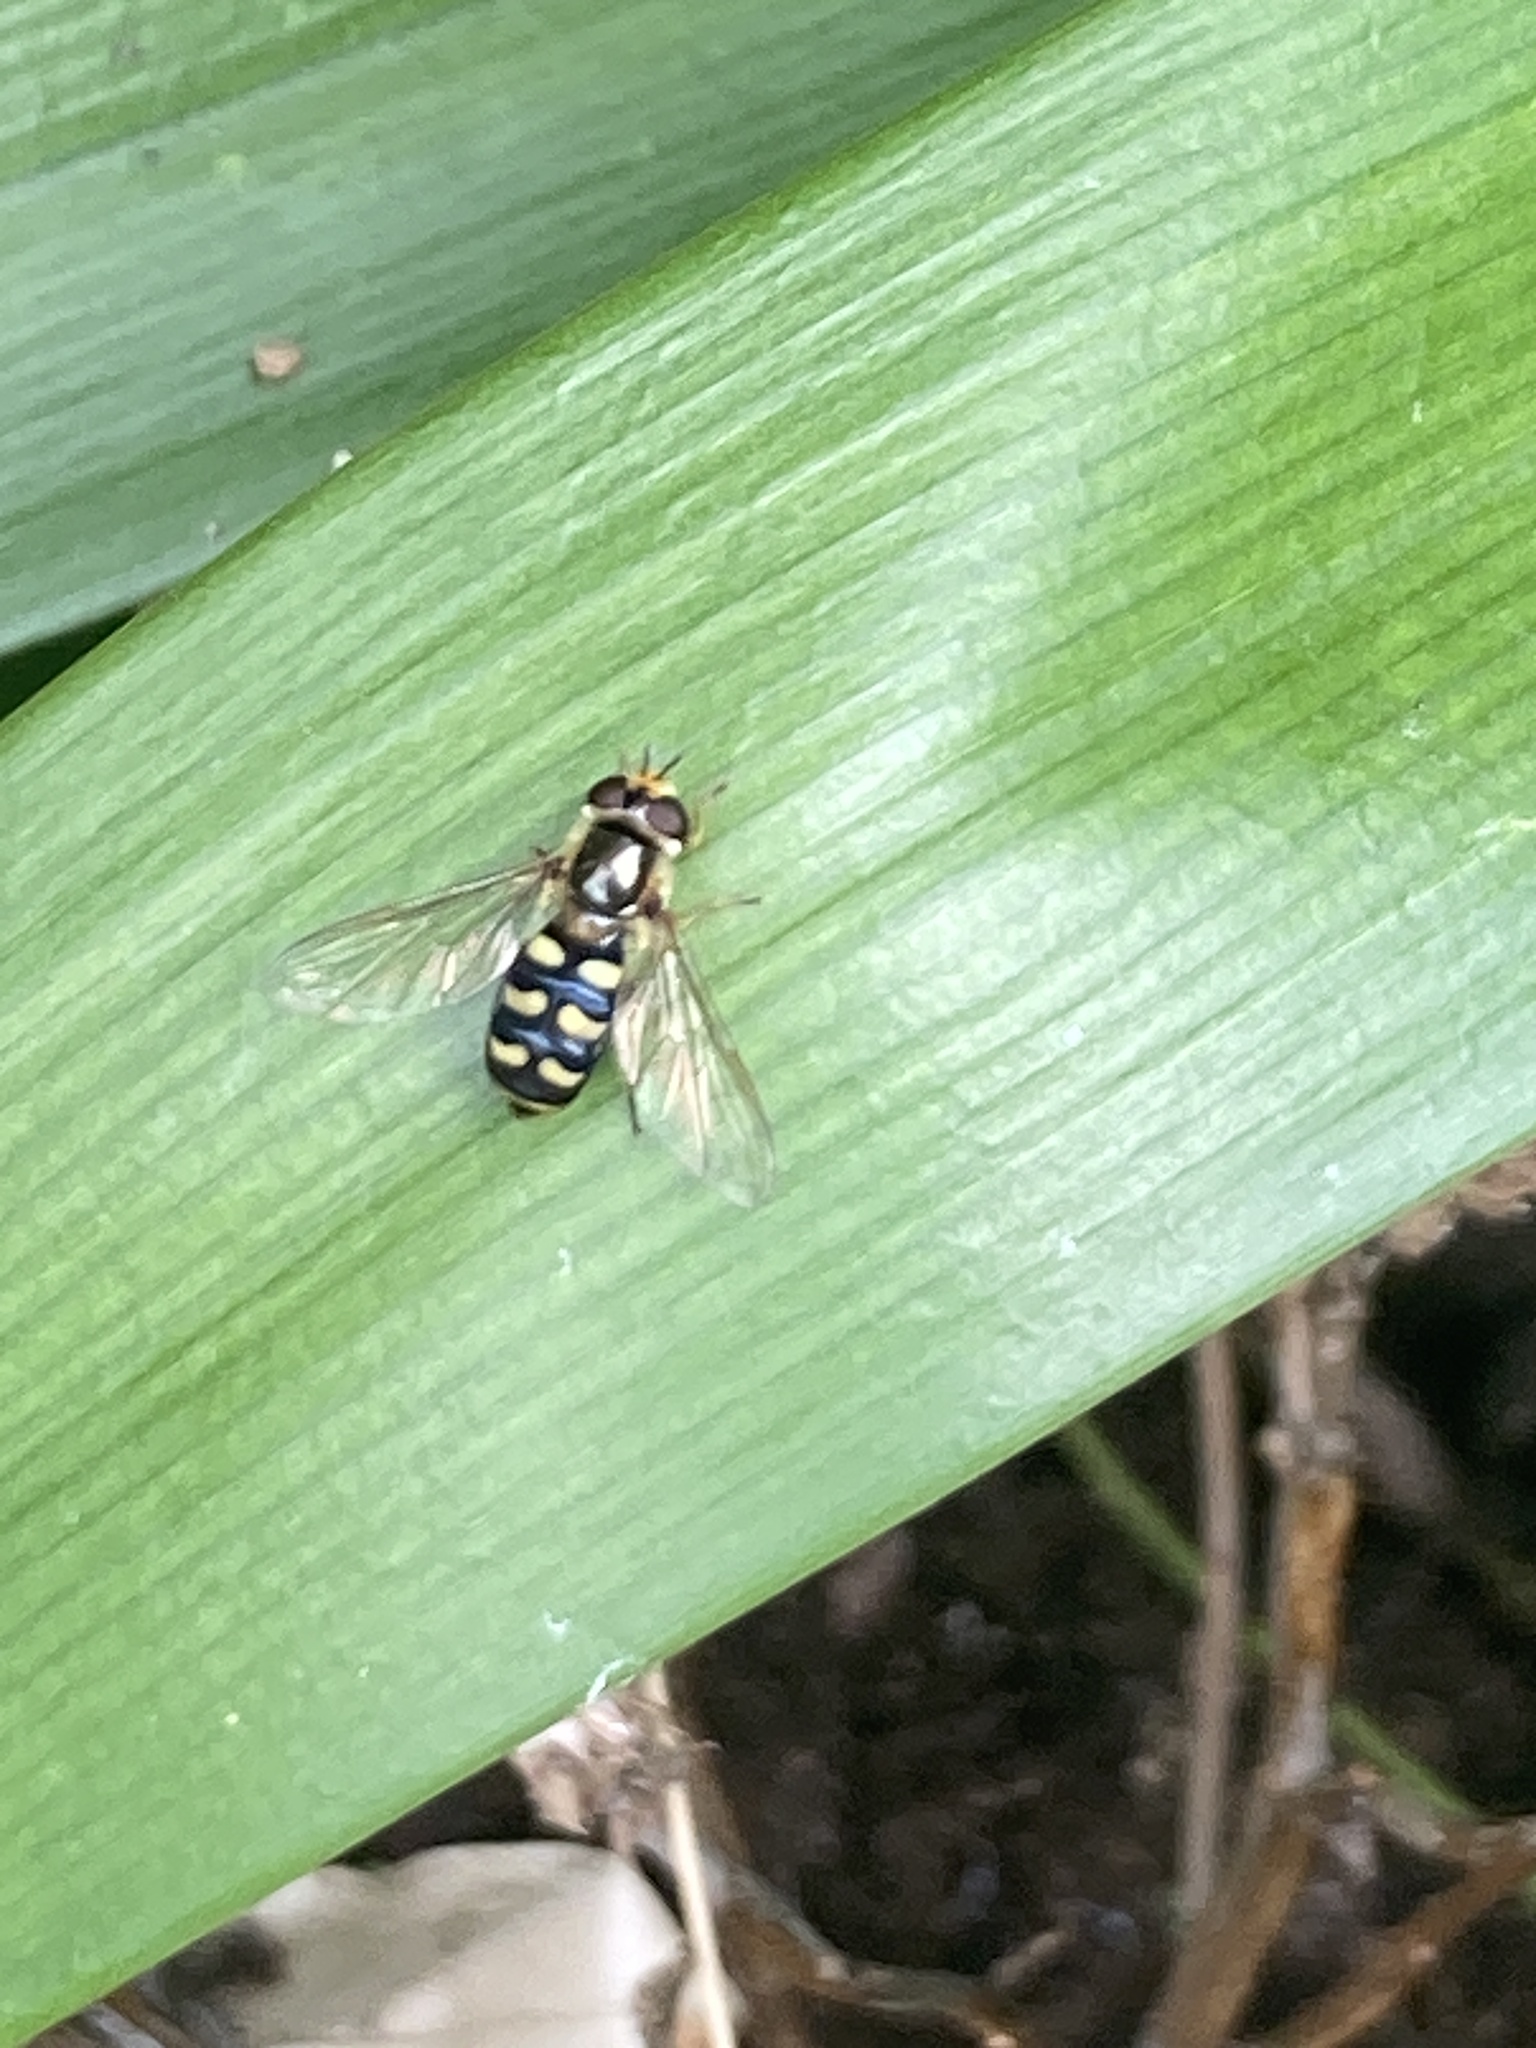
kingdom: Animalia
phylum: Arthropoda
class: Insecta
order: Diptera
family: Syrphidae
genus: Eupeodes
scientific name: Eupeodes luniger
